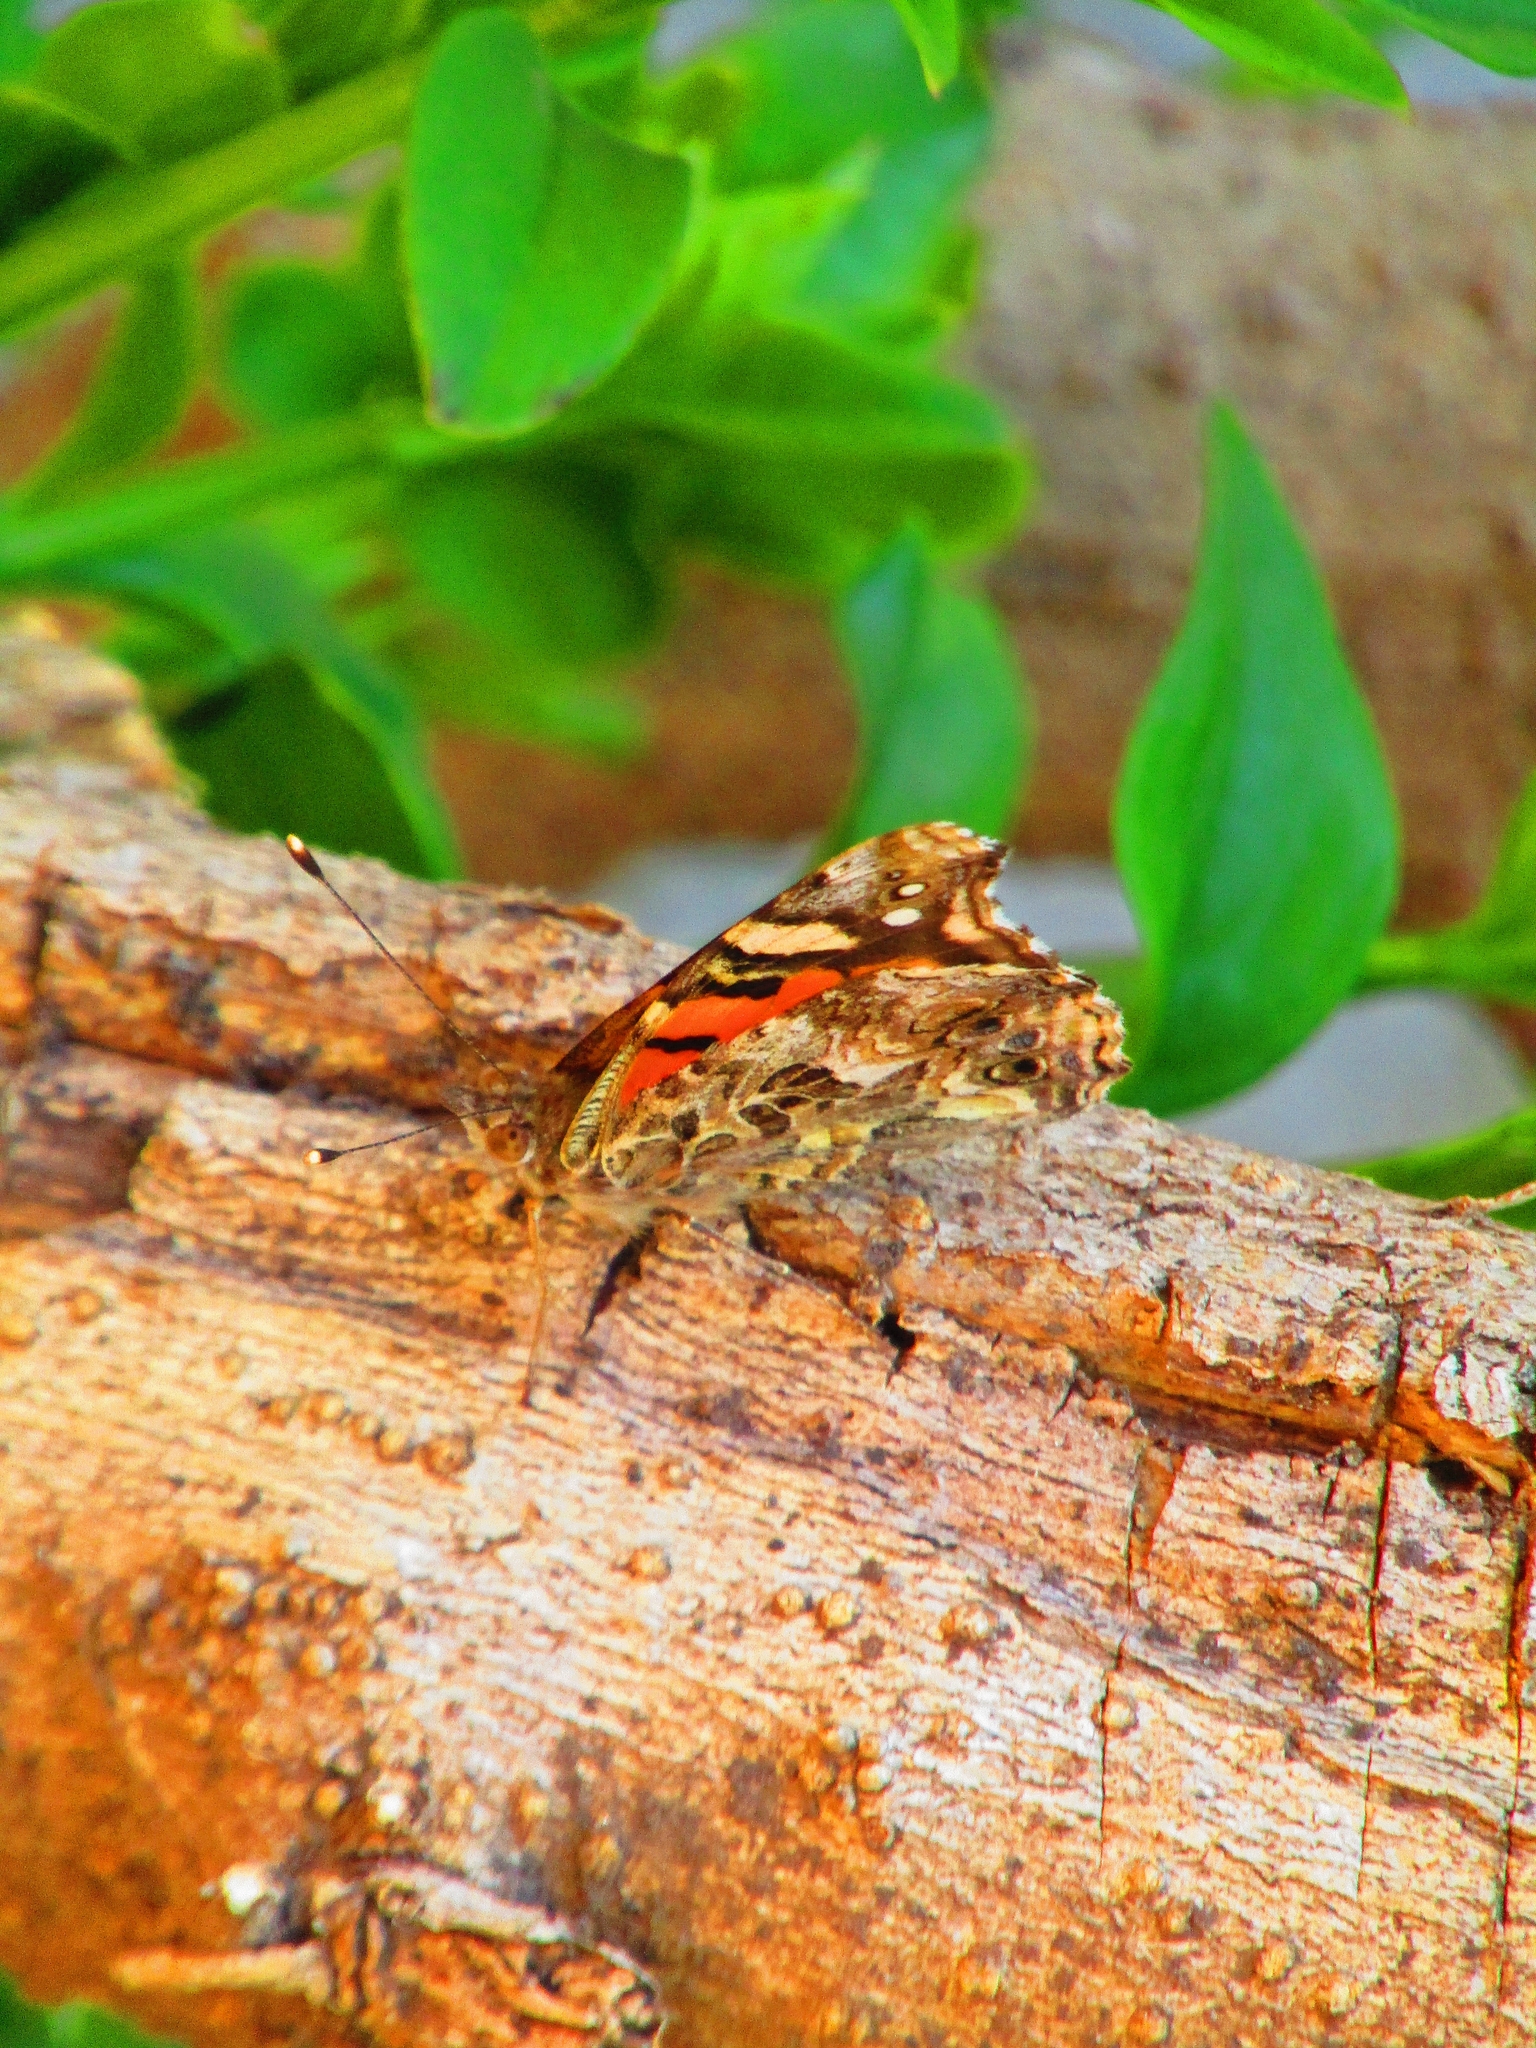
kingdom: Animalia
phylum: Arthropoda
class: Insecta
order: Lepidoptera
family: Nymphalidae
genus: Vanessa
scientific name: Vanessa carye
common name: Subtropical lady
